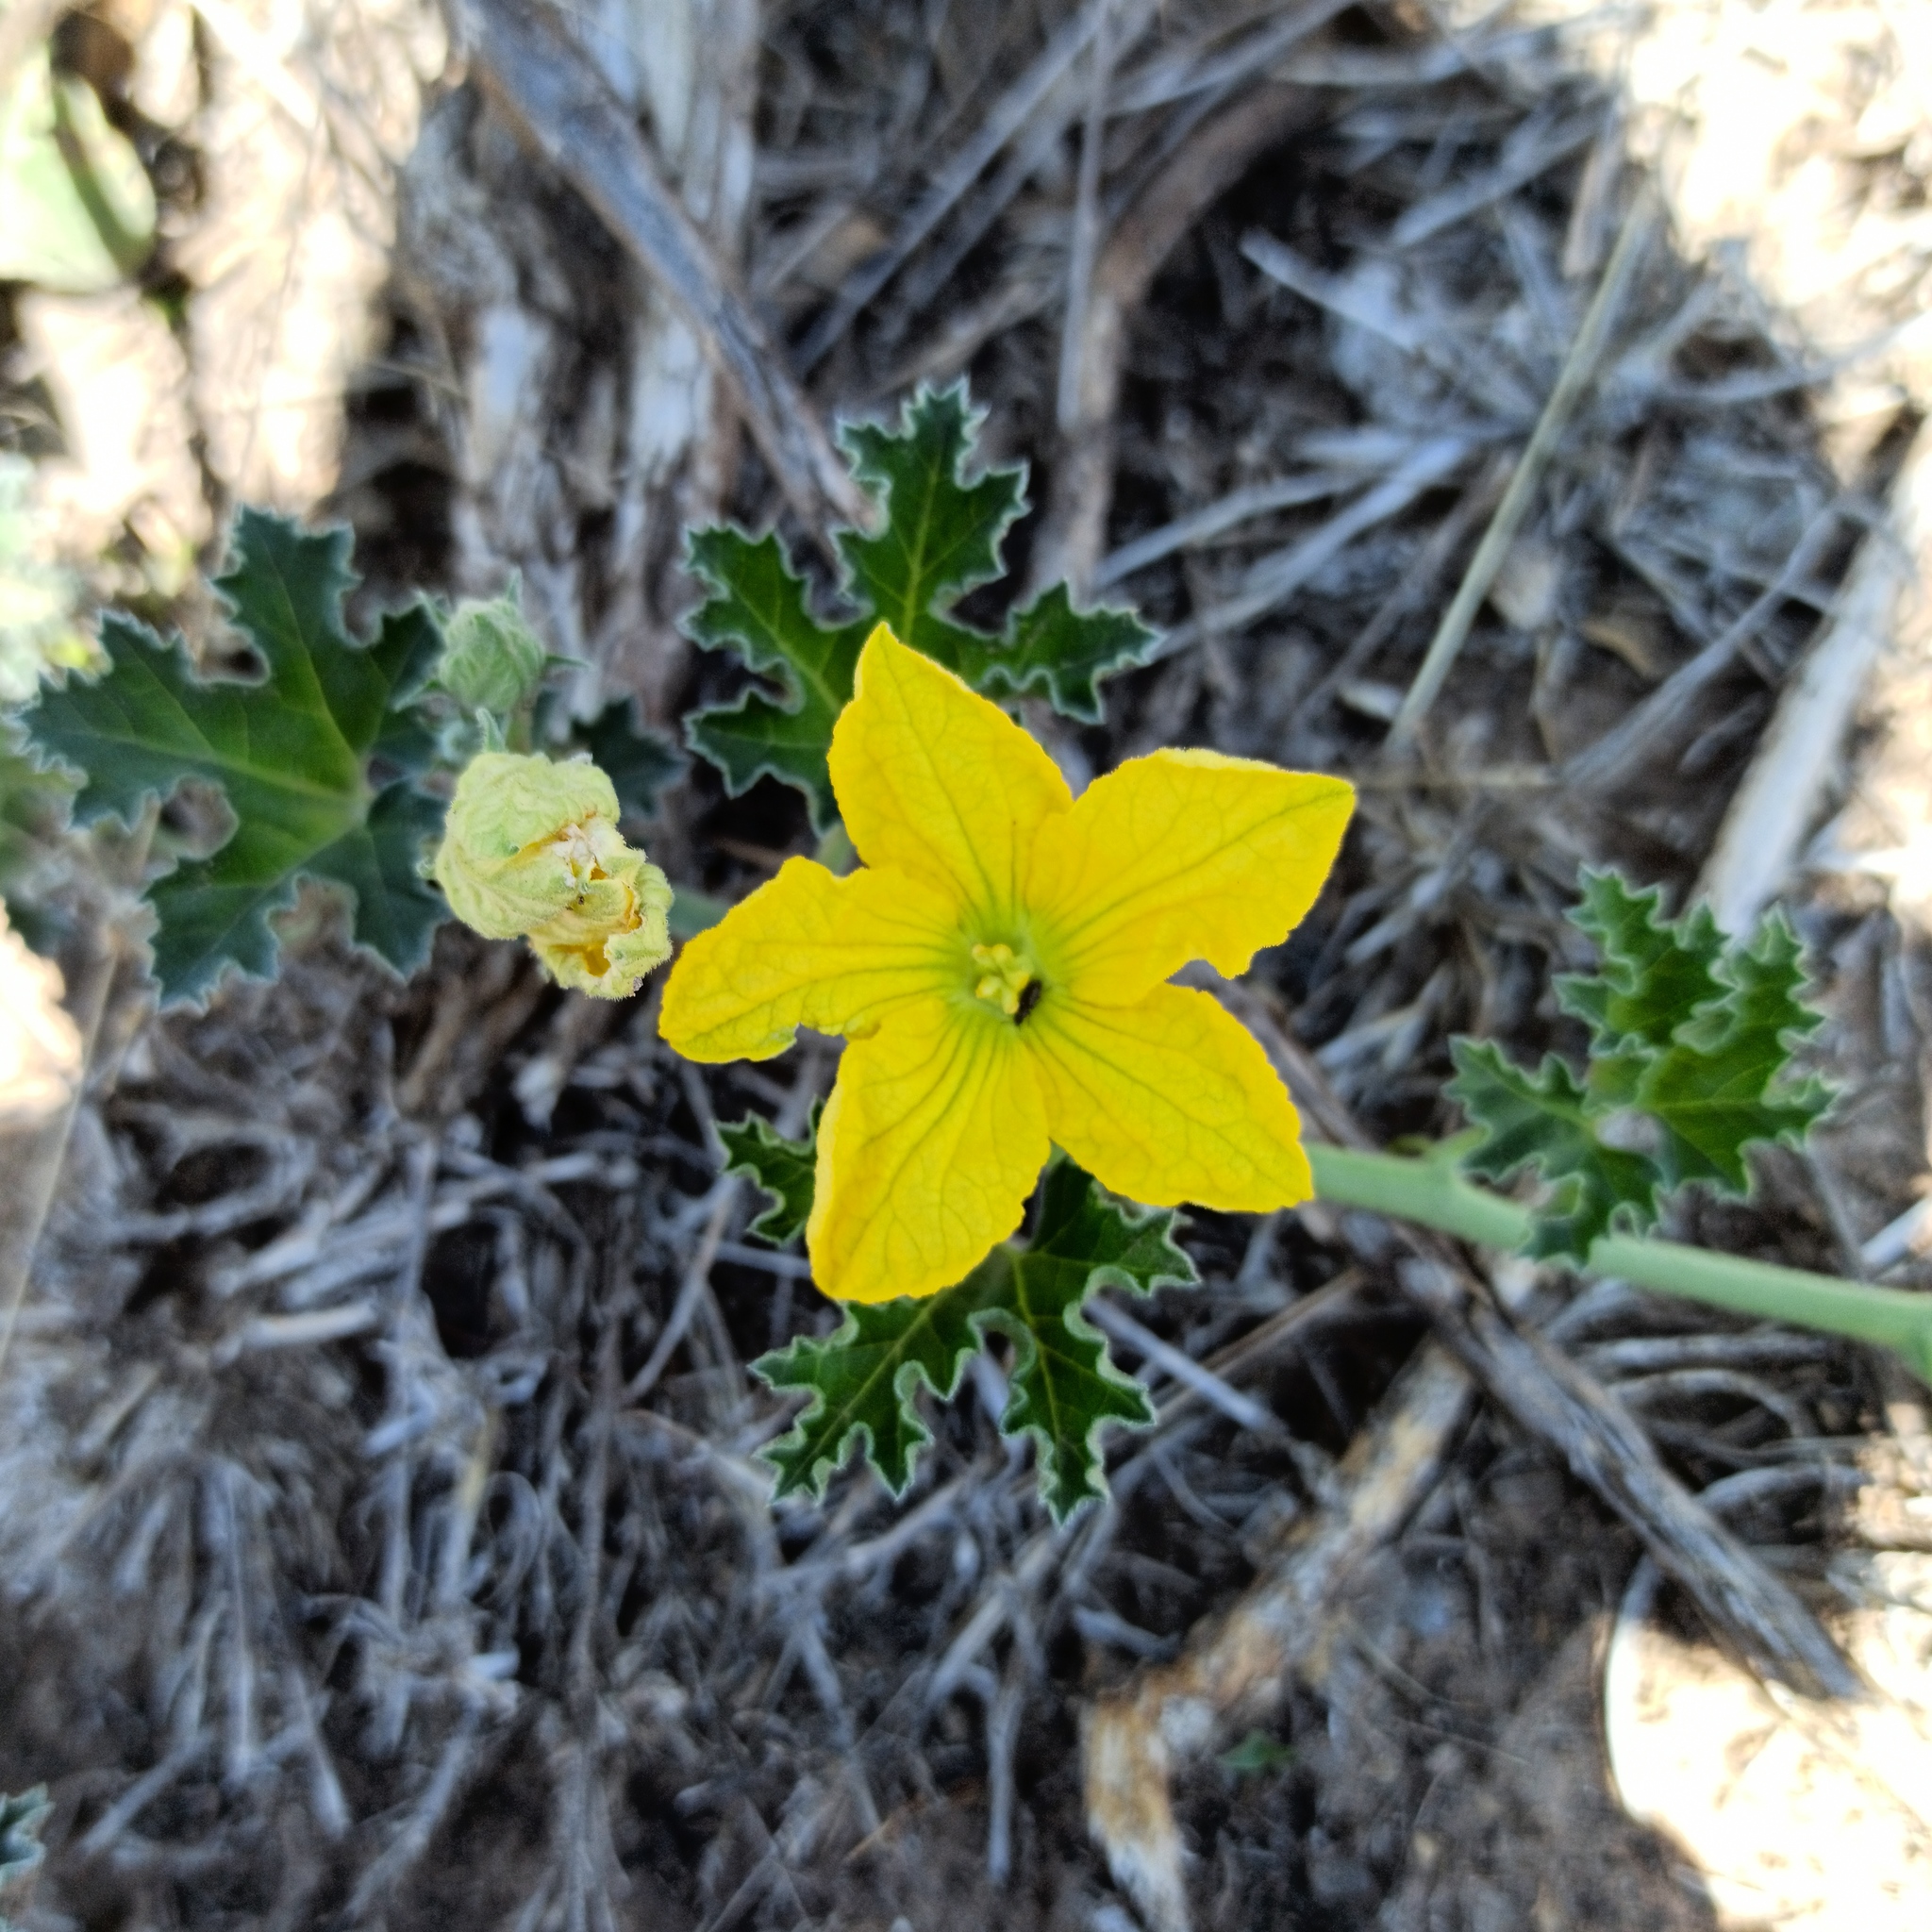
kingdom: Plantae
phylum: Tracheophyta
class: Magnoliopsida
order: Cucurbitales
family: Cucurbitaceae
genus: Apodanthera
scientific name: Apodanthera aspera
